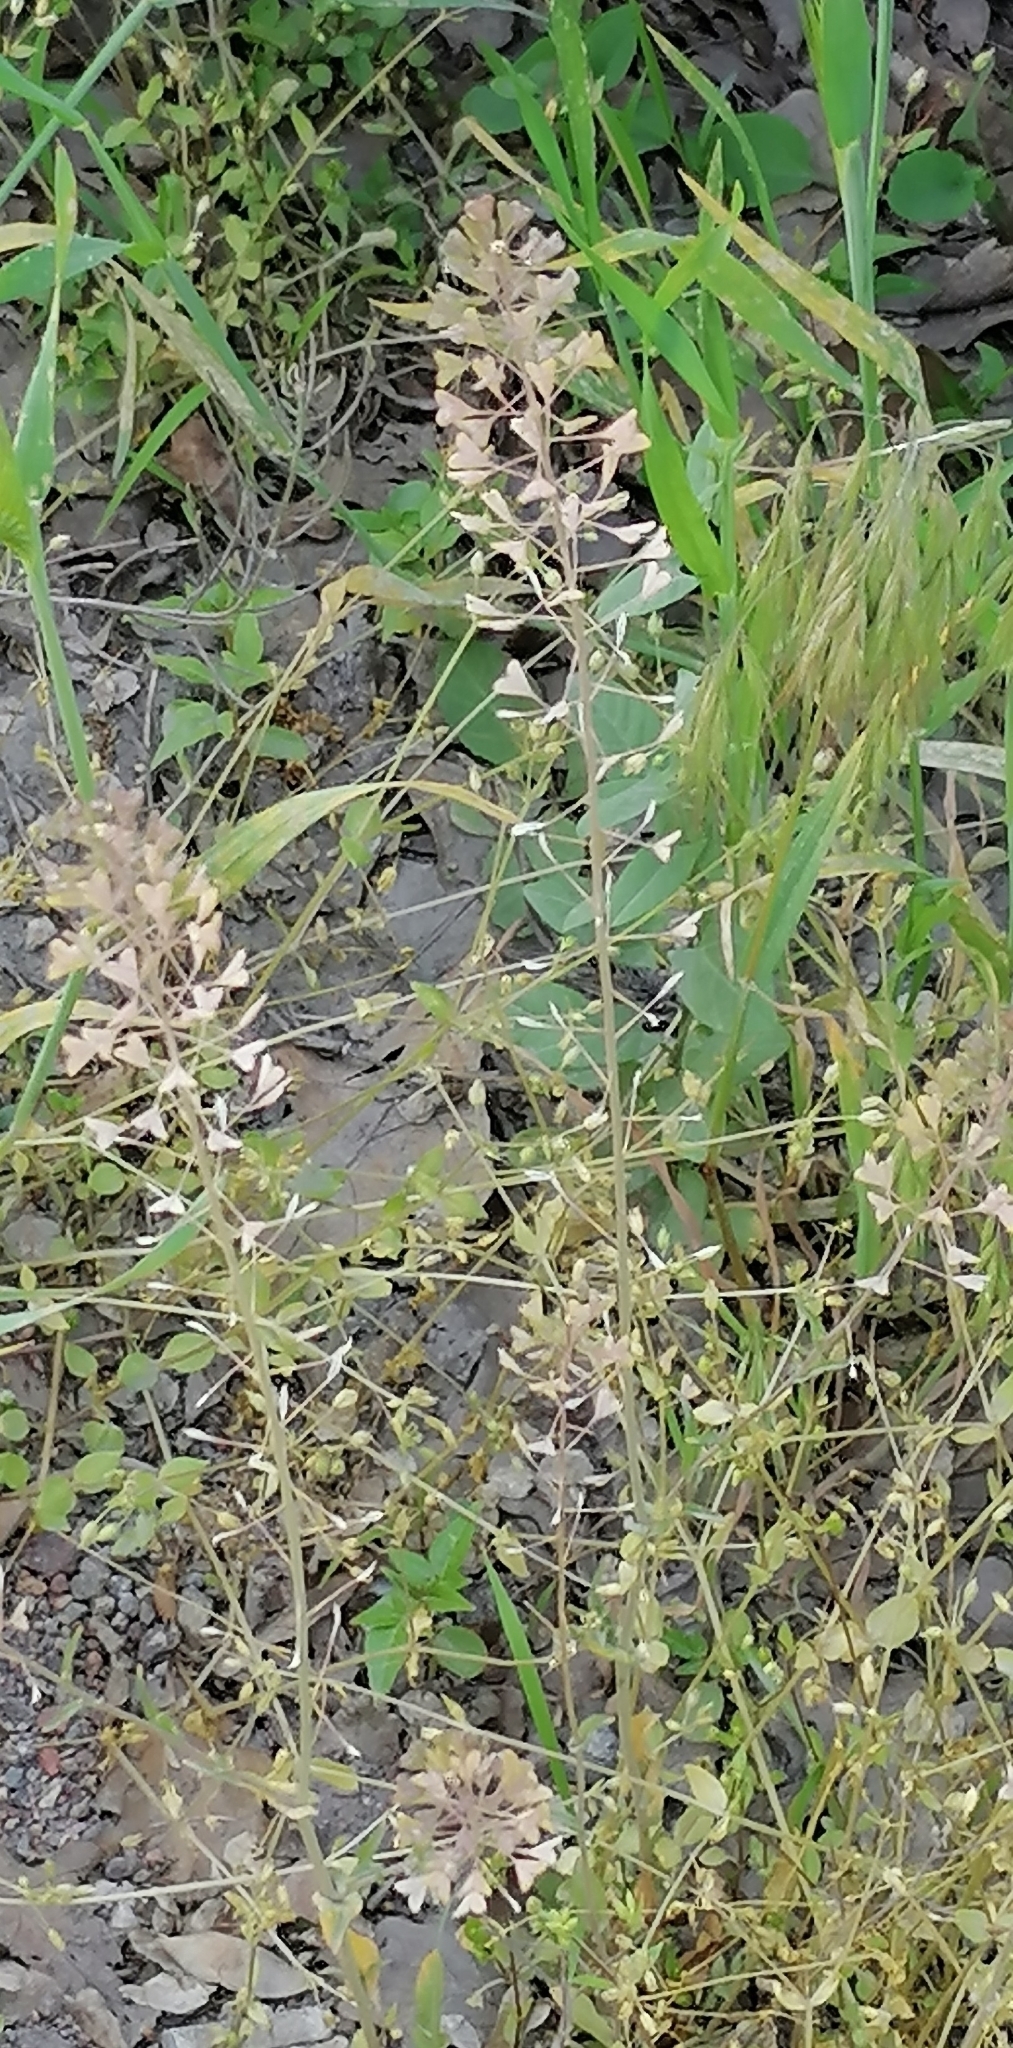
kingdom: Plantae
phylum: Tracheophyta
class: Magnoliopsida
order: Brassicales
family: Brassicaceae
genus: Capsella
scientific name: Capsella bursa-pastoris
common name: Shepherd's purse
